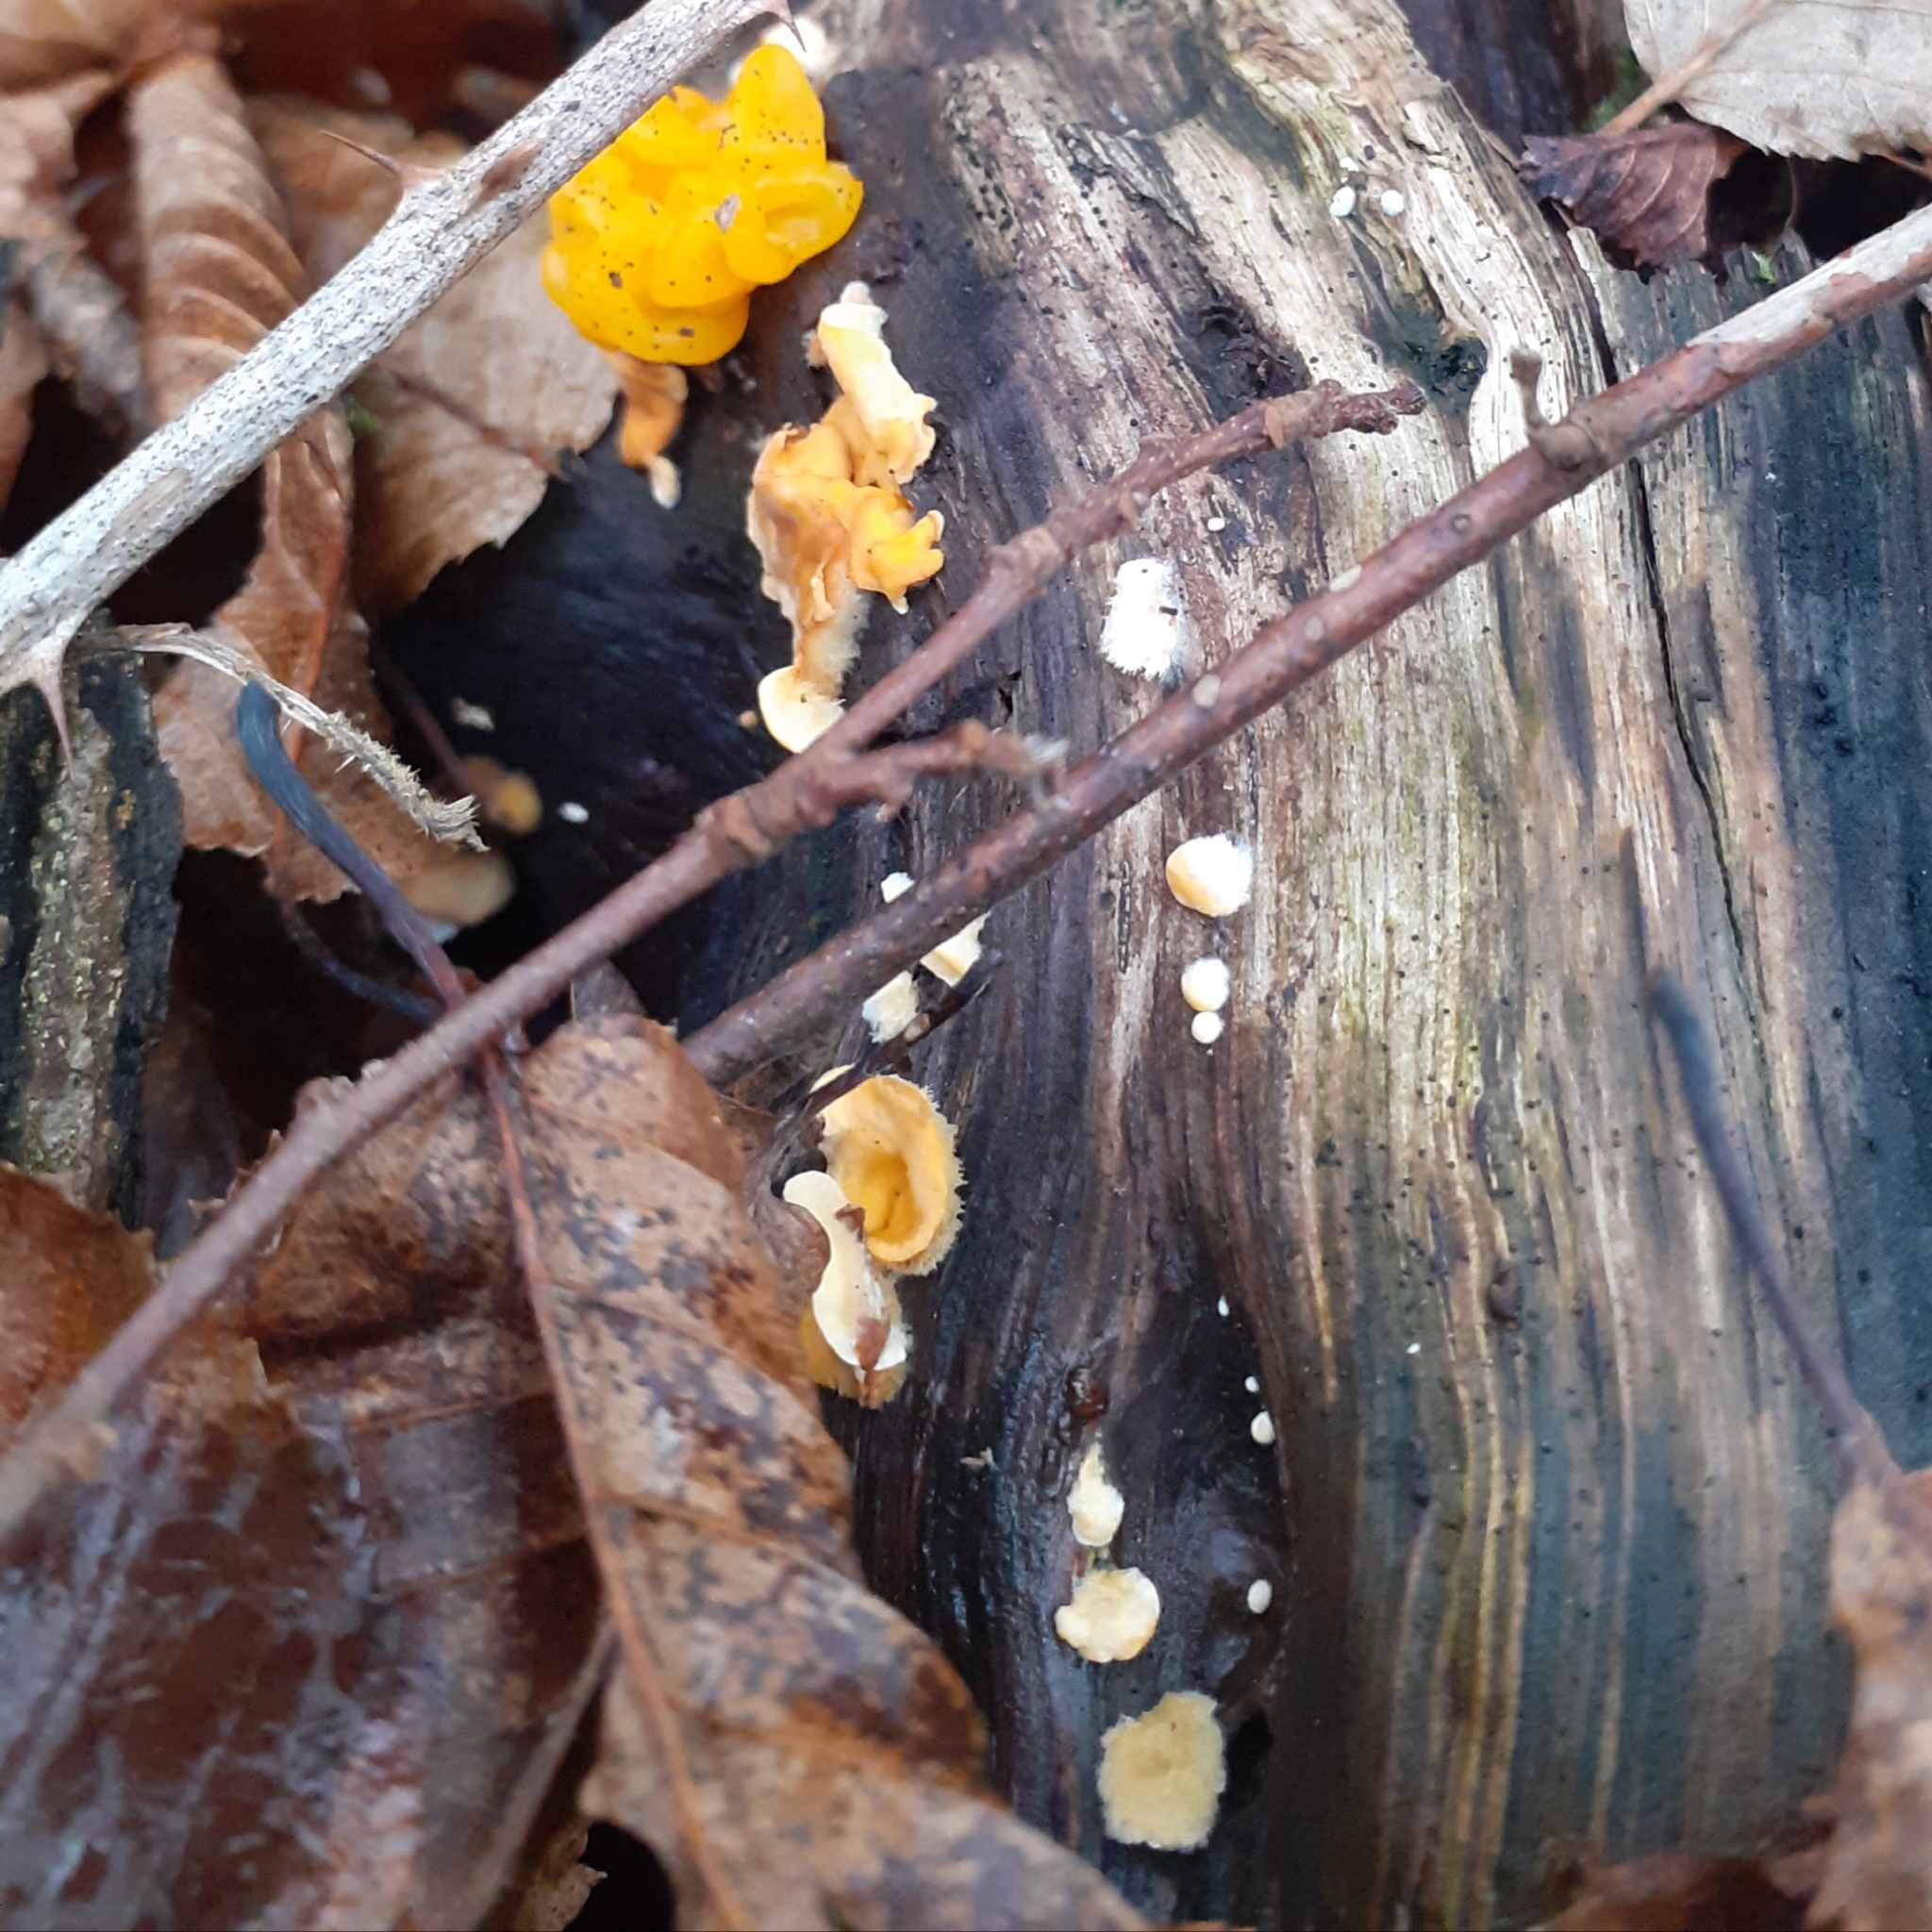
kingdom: Fungi
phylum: Basidiomycota
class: Agaricomycetes
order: Russulales
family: Stereaceae
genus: Stereum
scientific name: Stereum hirsutum
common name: Hairy curtain crust
